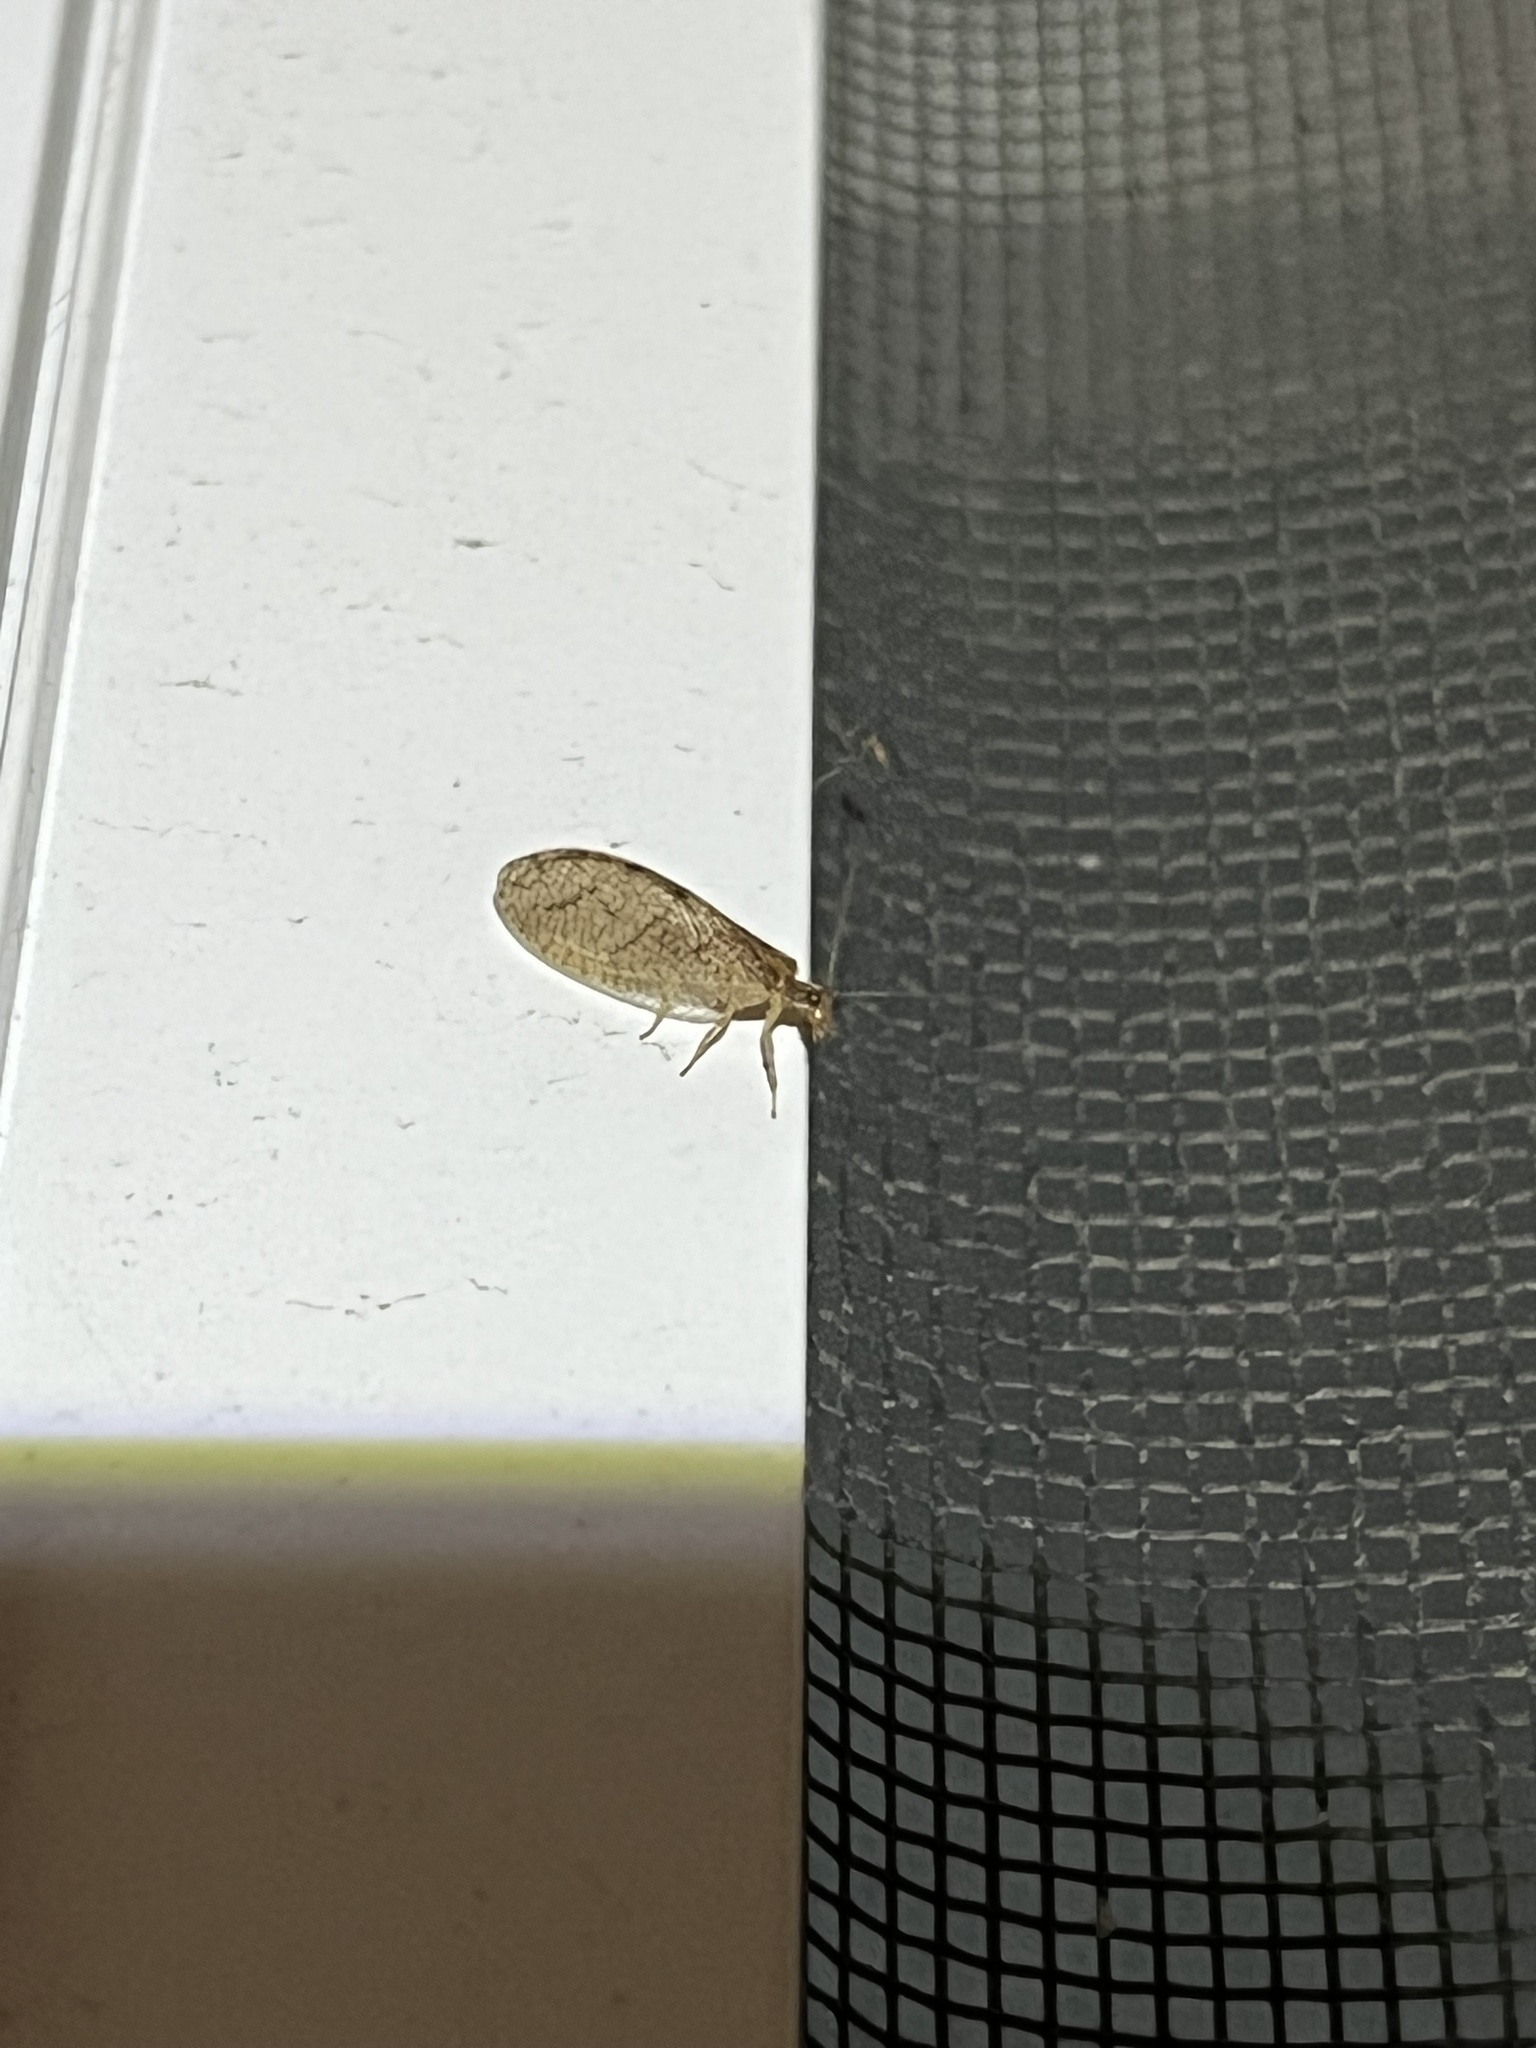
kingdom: Animalia
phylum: Arthropoda
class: Insecta
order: Neuroptera
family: Hemerobiidae
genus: Micromus
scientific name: Micromus posticus
